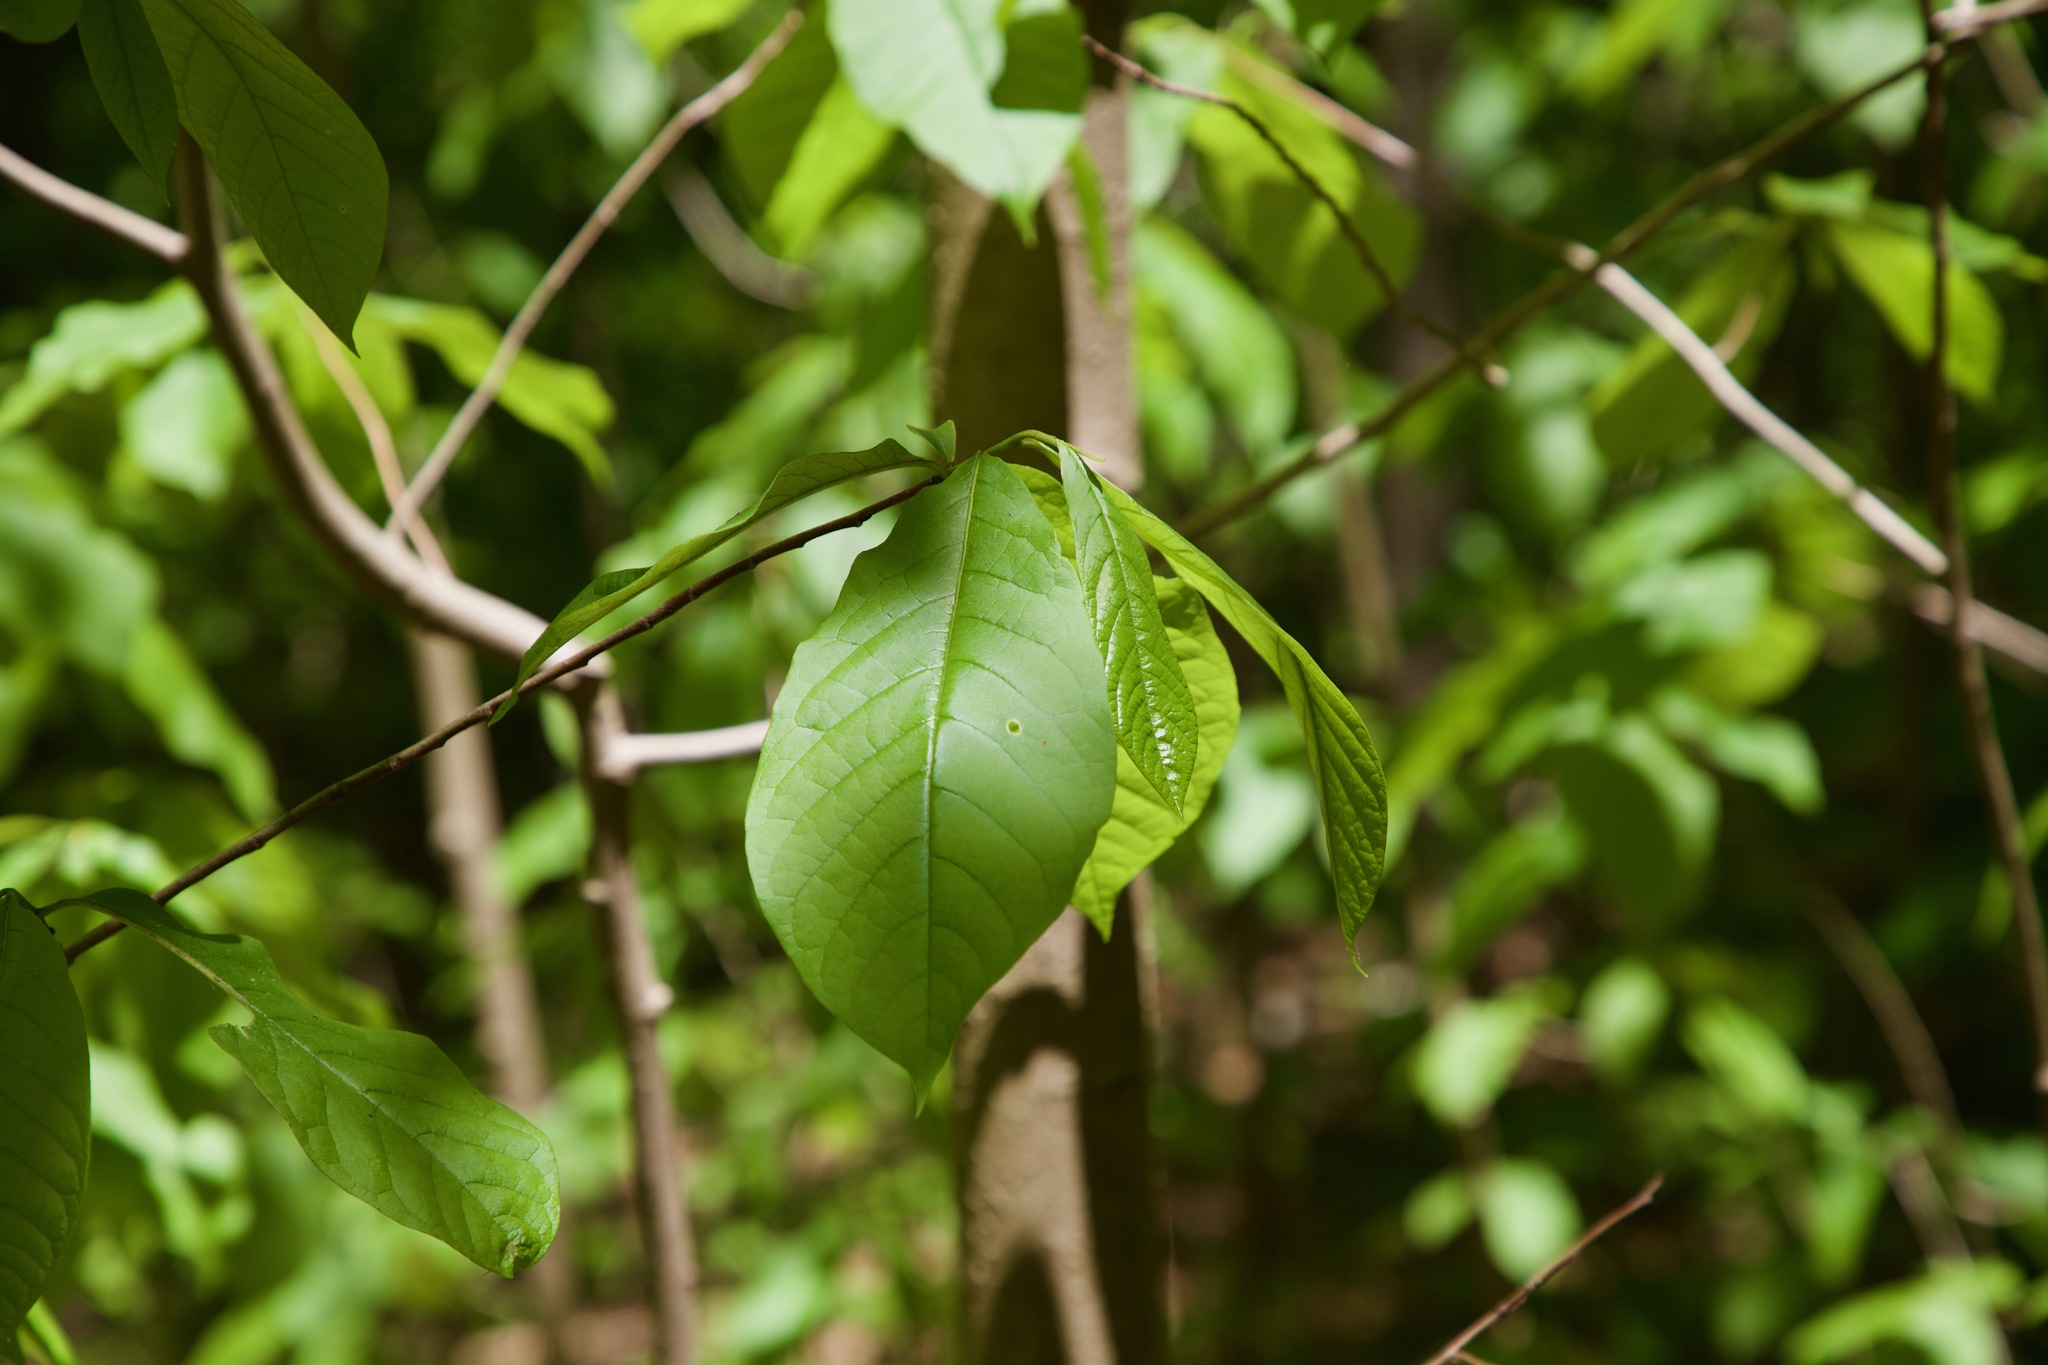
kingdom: Plantae
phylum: Tracheophyta
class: Magnoliopsida
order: Magnoliales
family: Annonaceae
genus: Asimina
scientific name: Asimina triloba
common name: Dog-banana
